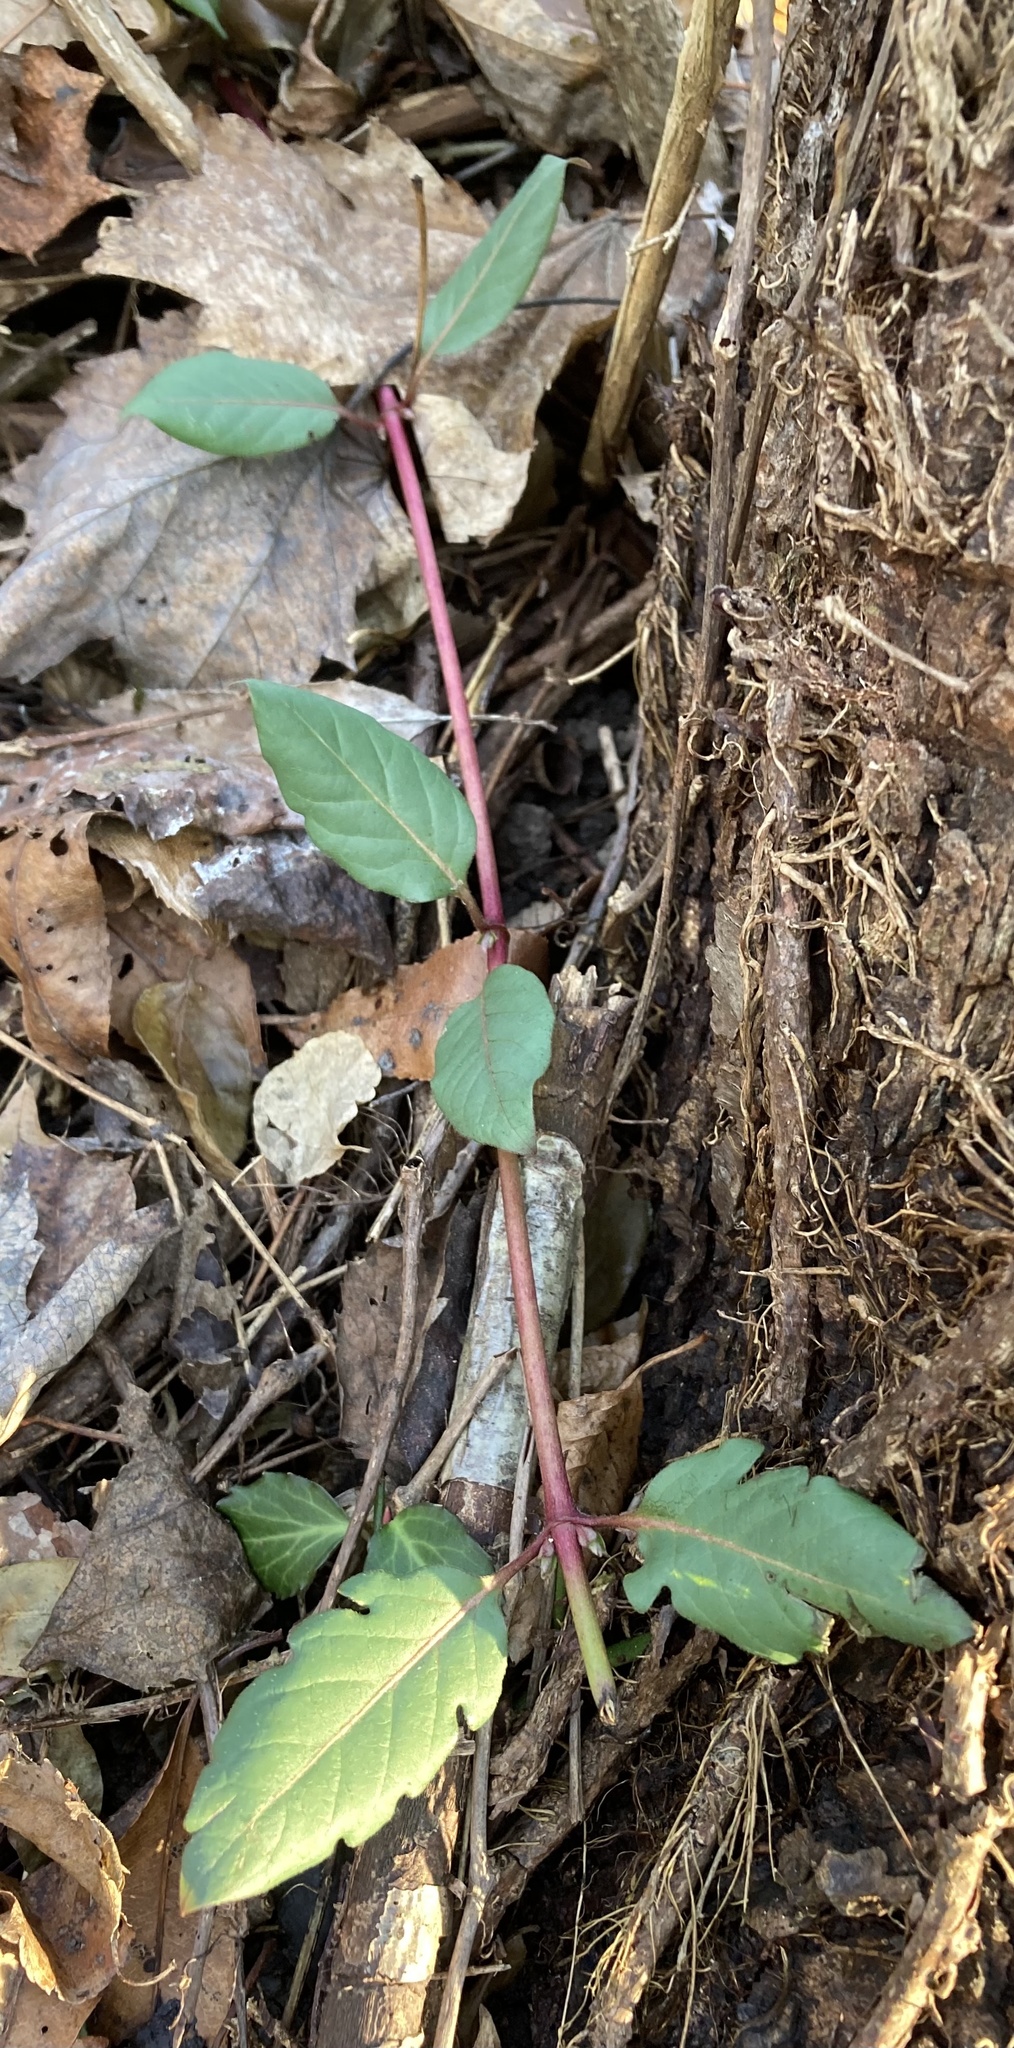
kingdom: Plantae
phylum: Tracheophyta
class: Magnoliopsida
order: Dipsacales
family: Caprifoliaceae
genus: Lonicera
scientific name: Lonicera japonica
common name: Japanese honeysuckle
